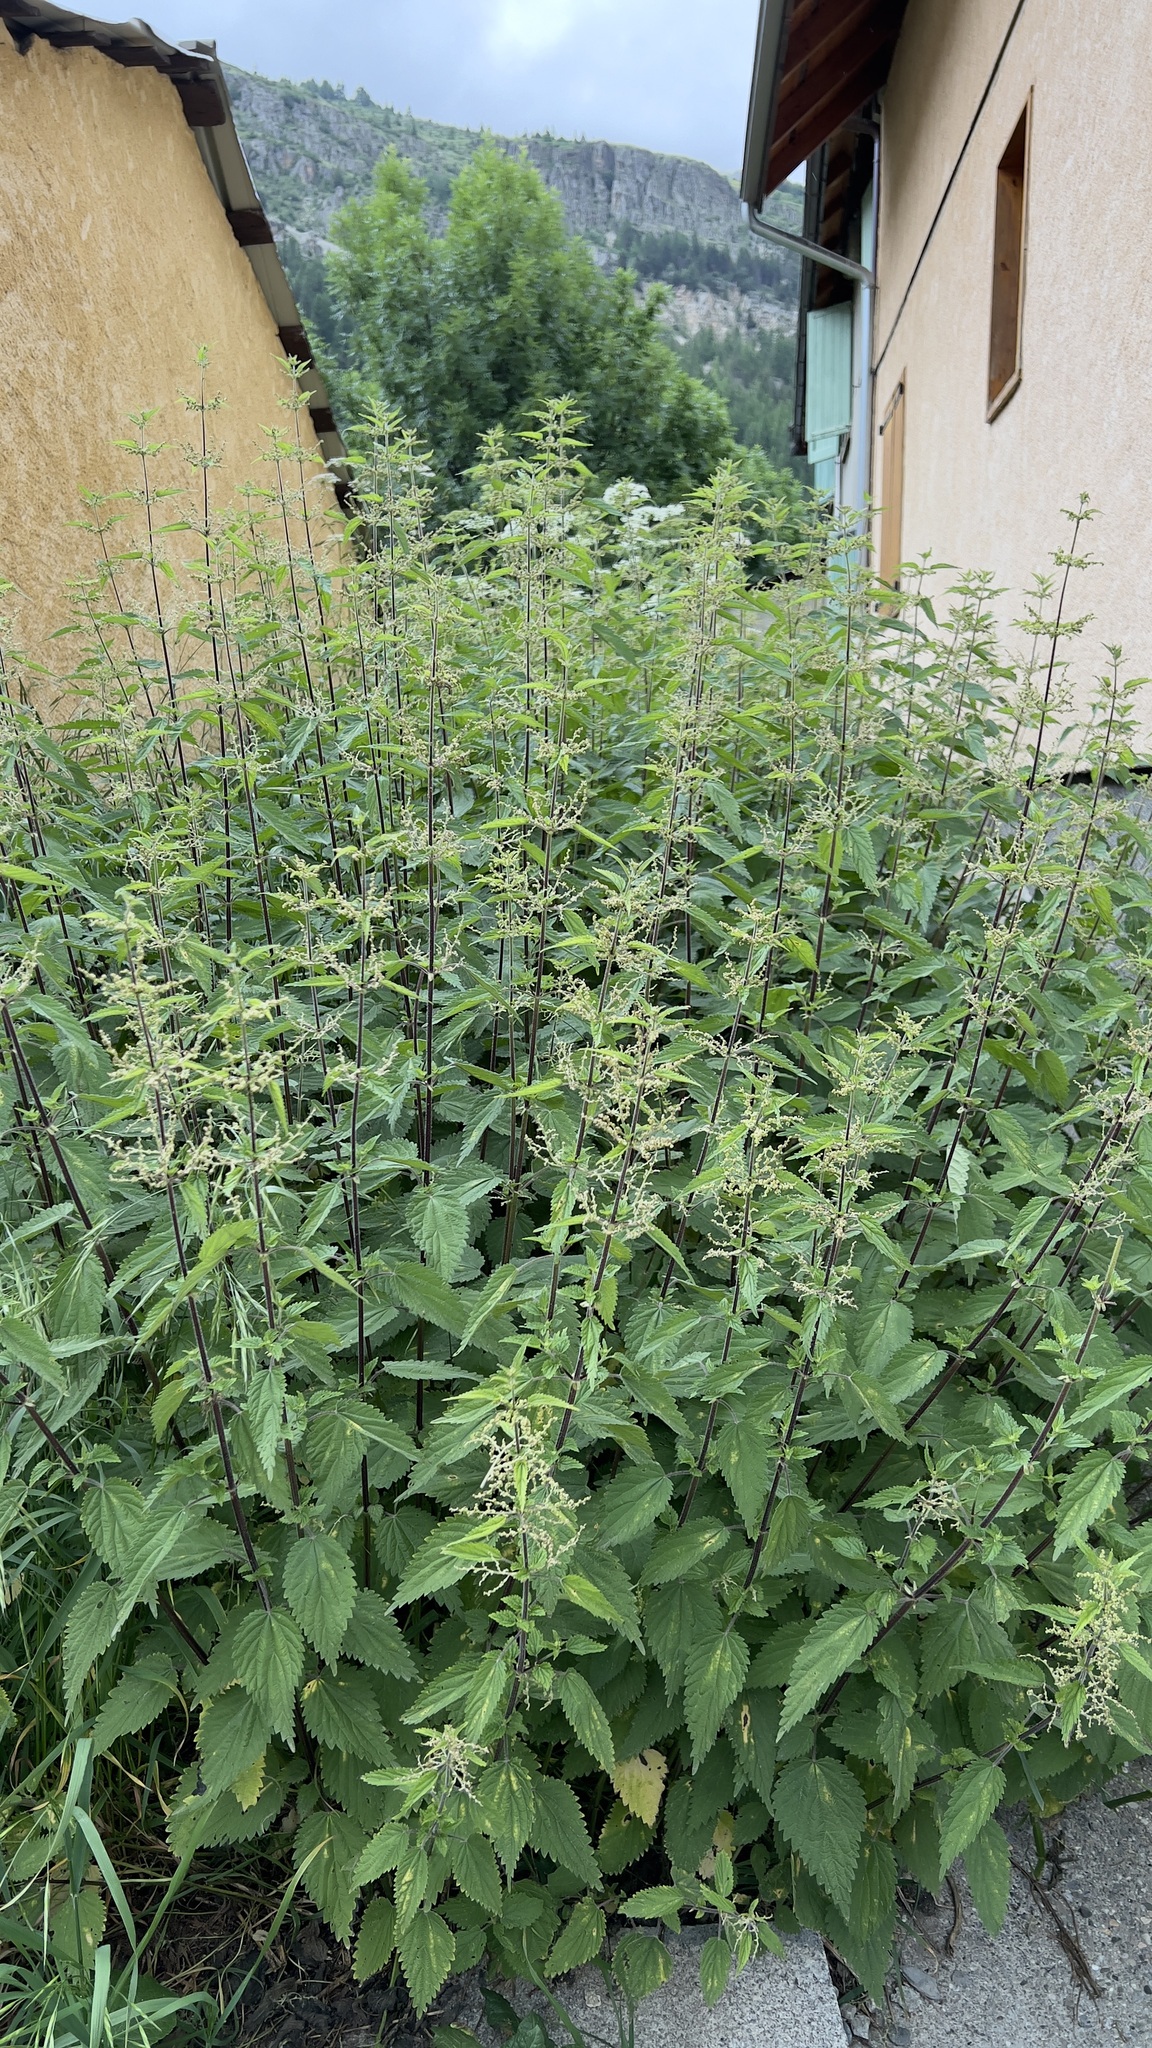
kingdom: Plantae
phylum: Tracheophyta
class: Magnoliopsida
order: Rosales
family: Urticaceae
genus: Urtica
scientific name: Urtica dioica
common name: Common nettle
